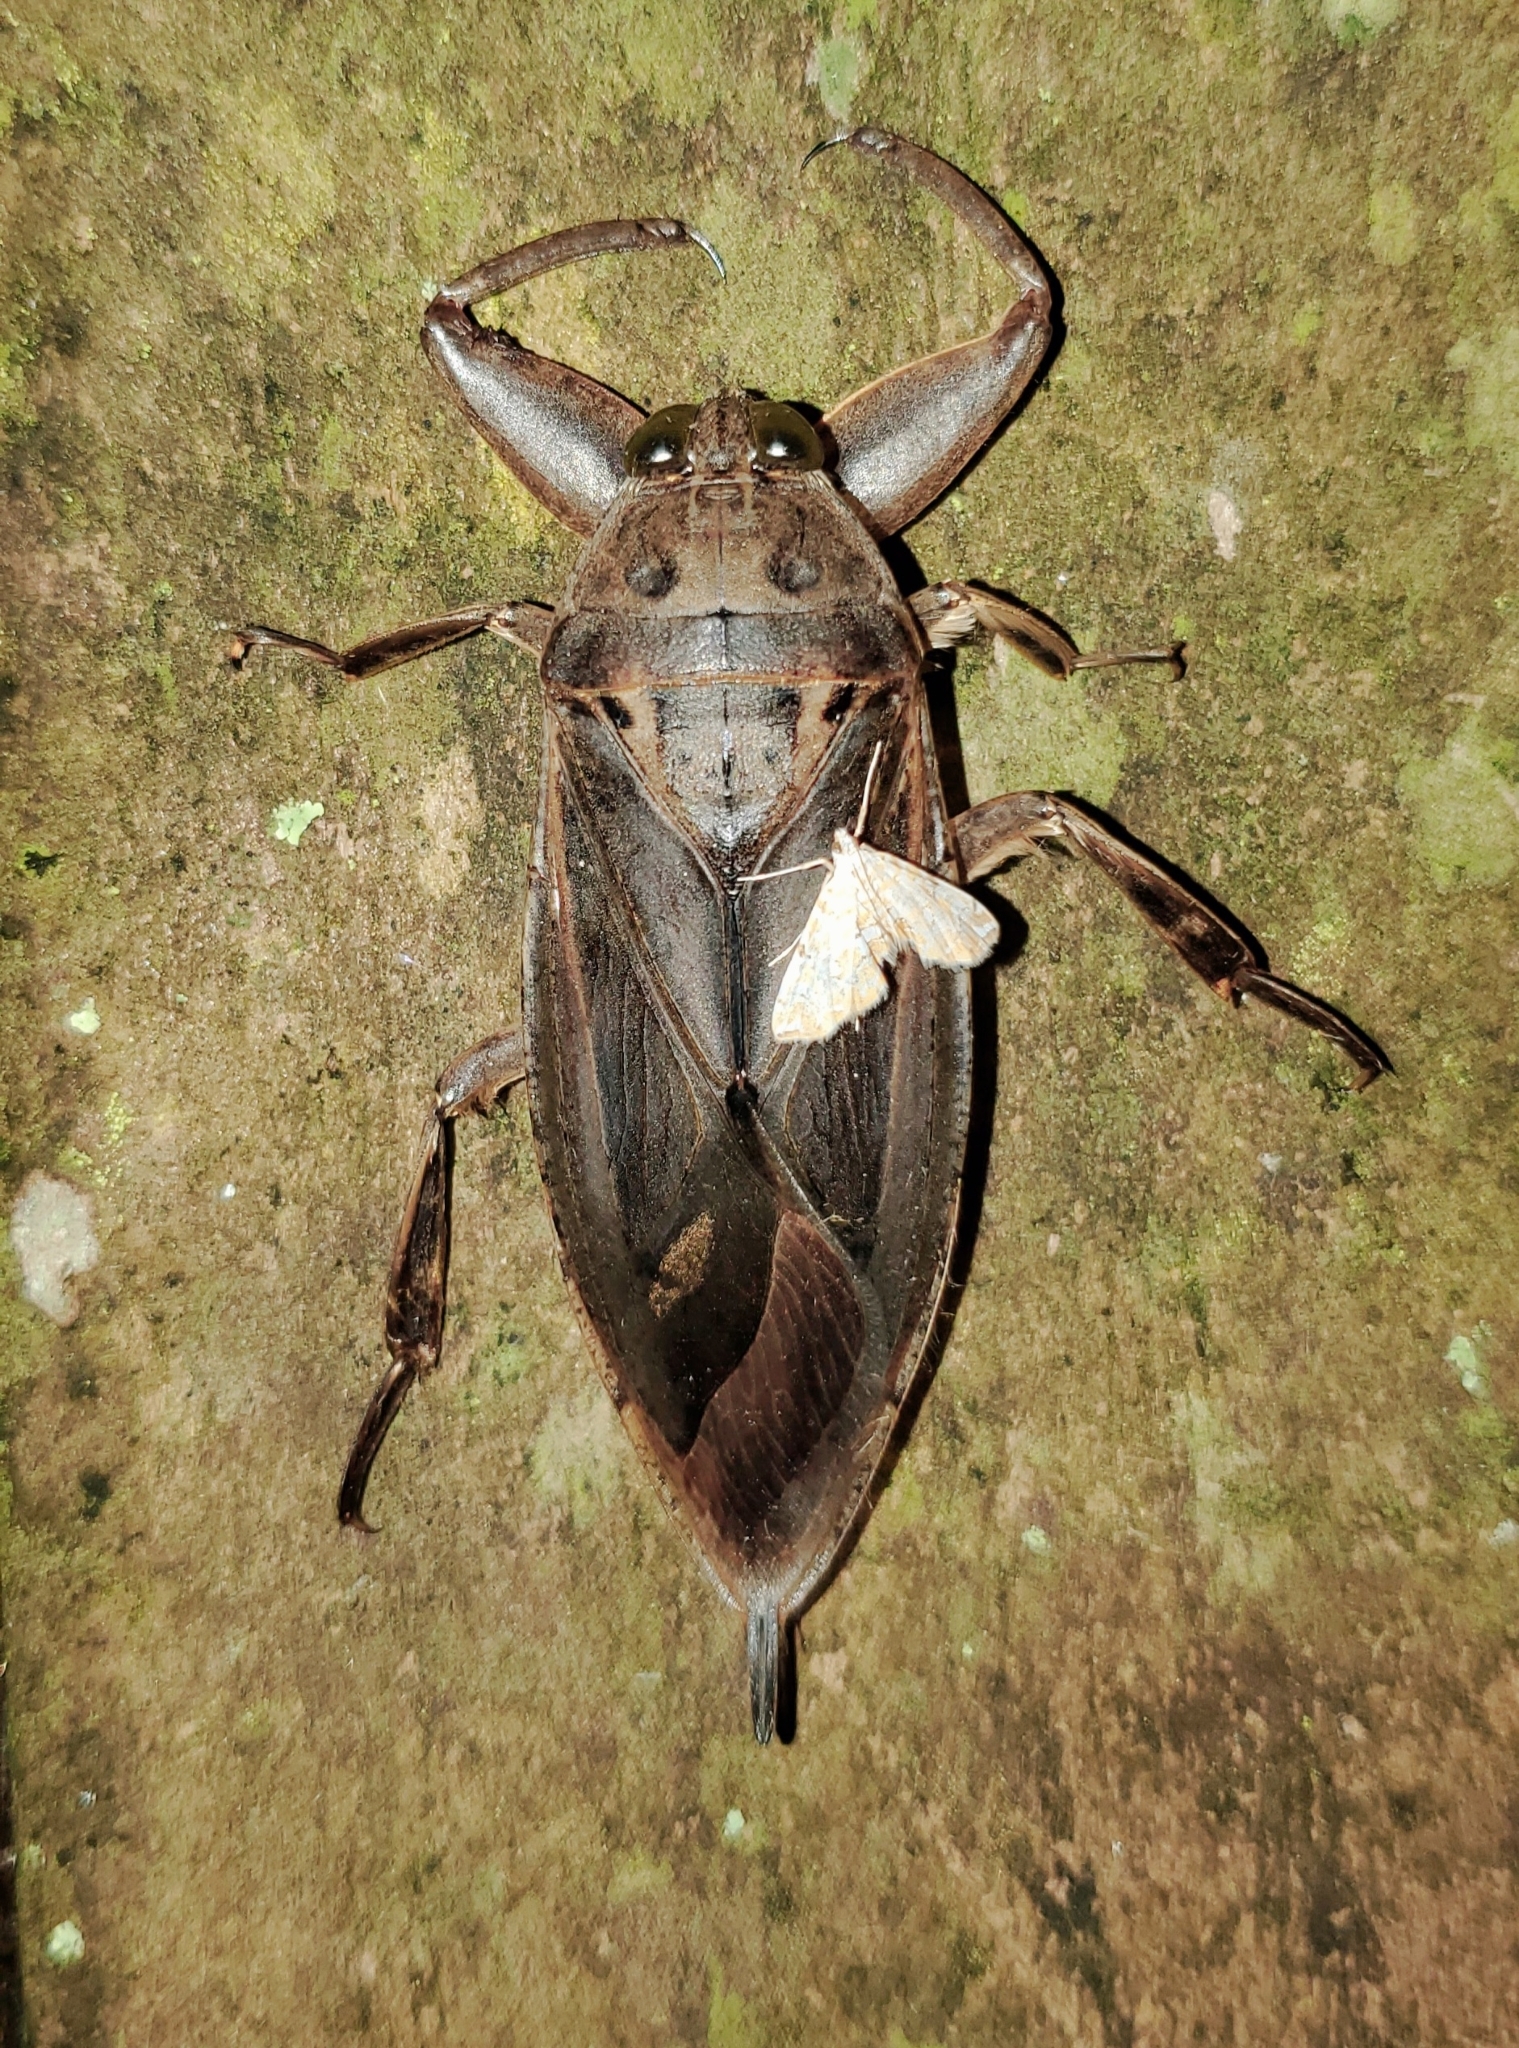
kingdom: Animalia
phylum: Arthropoda
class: Insecta
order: Hemiptera
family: Belostomatidae
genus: Lethocerus
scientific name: Lethocerus uhleri
